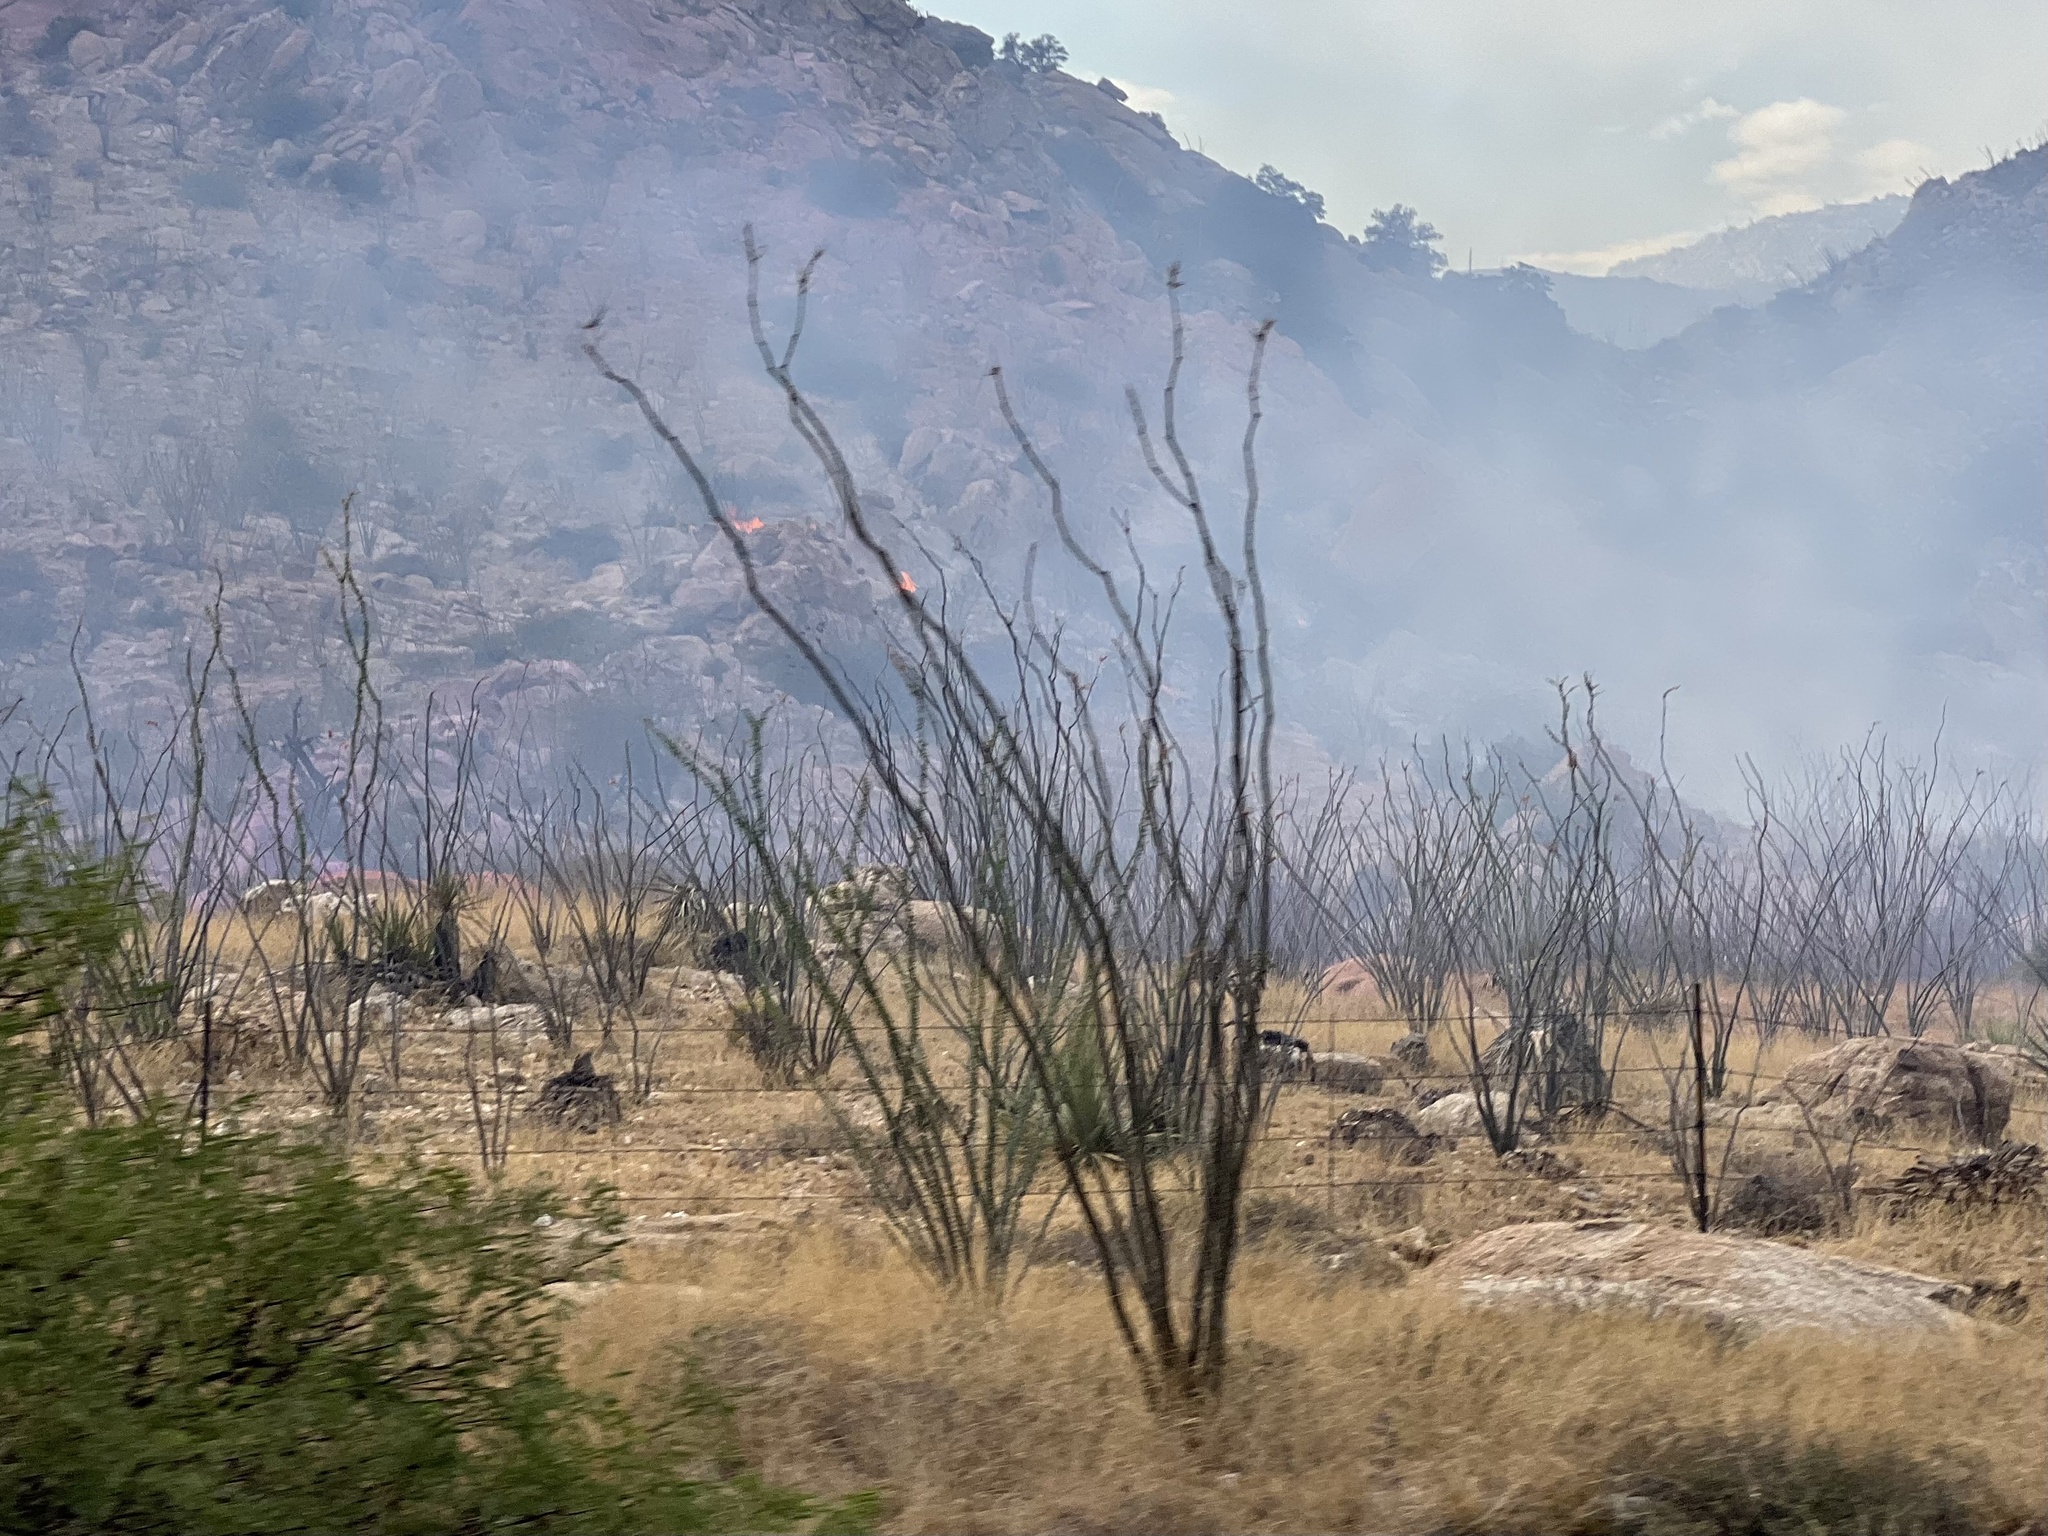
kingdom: Plantae
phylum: Tracheophyta
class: Magnoliopsida
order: Ericales
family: Fouquieriaceae
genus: Fouquieria
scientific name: Fouquieria splendens
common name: Vine-cactus
